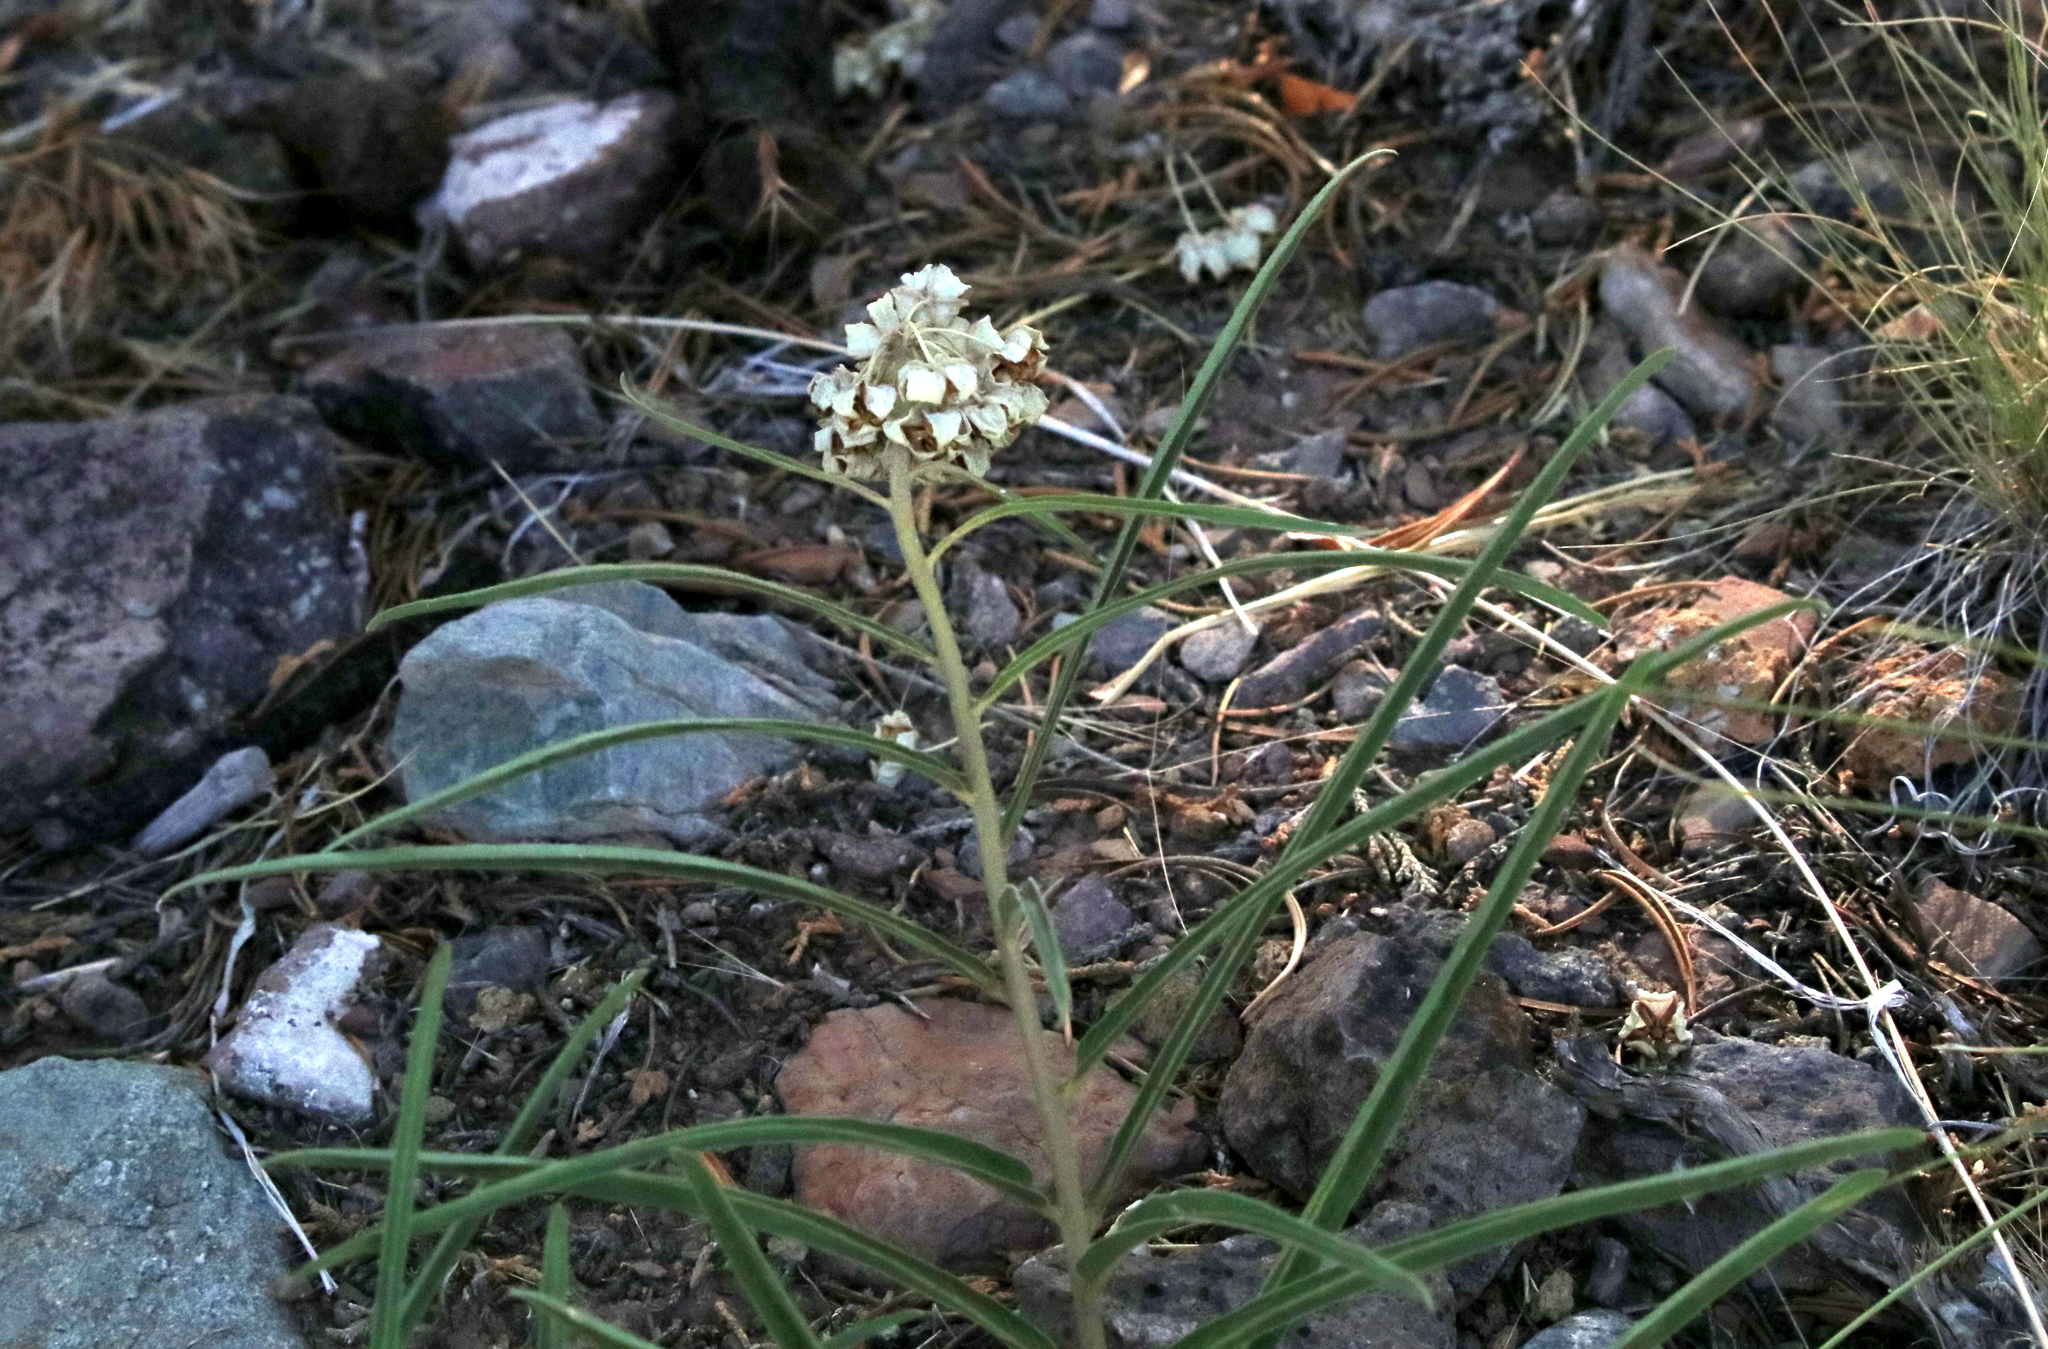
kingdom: Plantae
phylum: Tracheophyta
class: Magnoliopsida
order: Gentianales
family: Apocynaceae
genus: Asclepias
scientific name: Asclepias asperula
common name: Antelope horns
